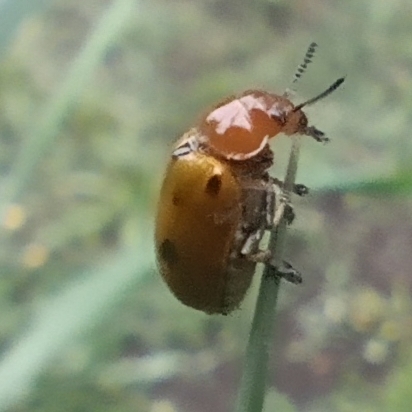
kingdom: Animalia
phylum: Arthropoda
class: Insecta
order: Coleoptera
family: Chrysomelidae
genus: Antipus
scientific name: Antipus rufus
